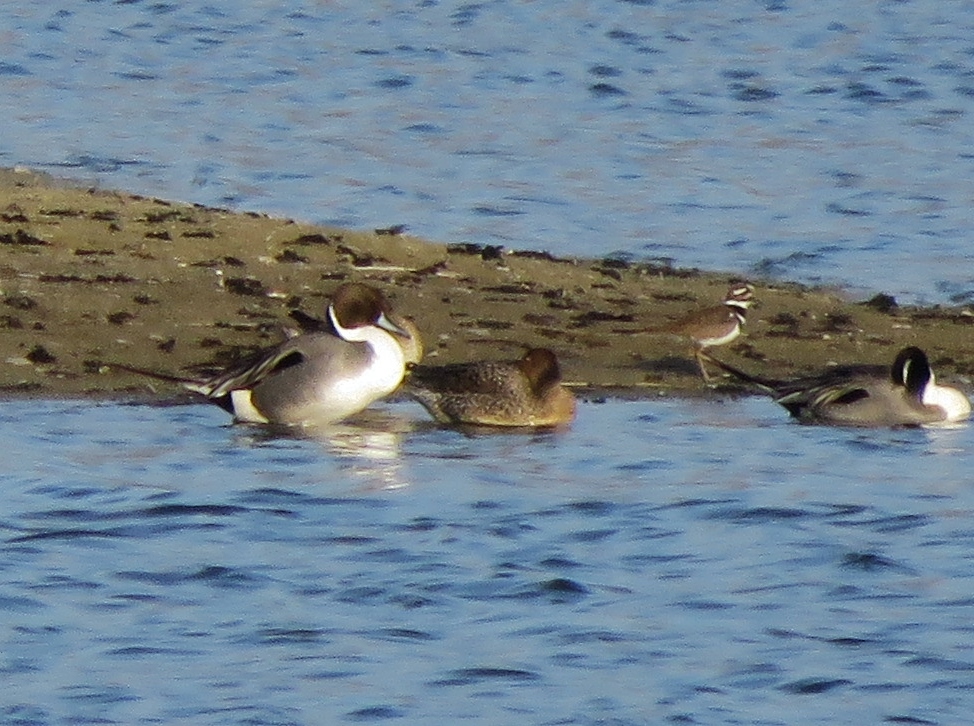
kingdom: Animalia
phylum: Chordata
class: Aves
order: Anseriformes
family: Anatidae
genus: Anas
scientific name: Anas acuta
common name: Northern pintail
